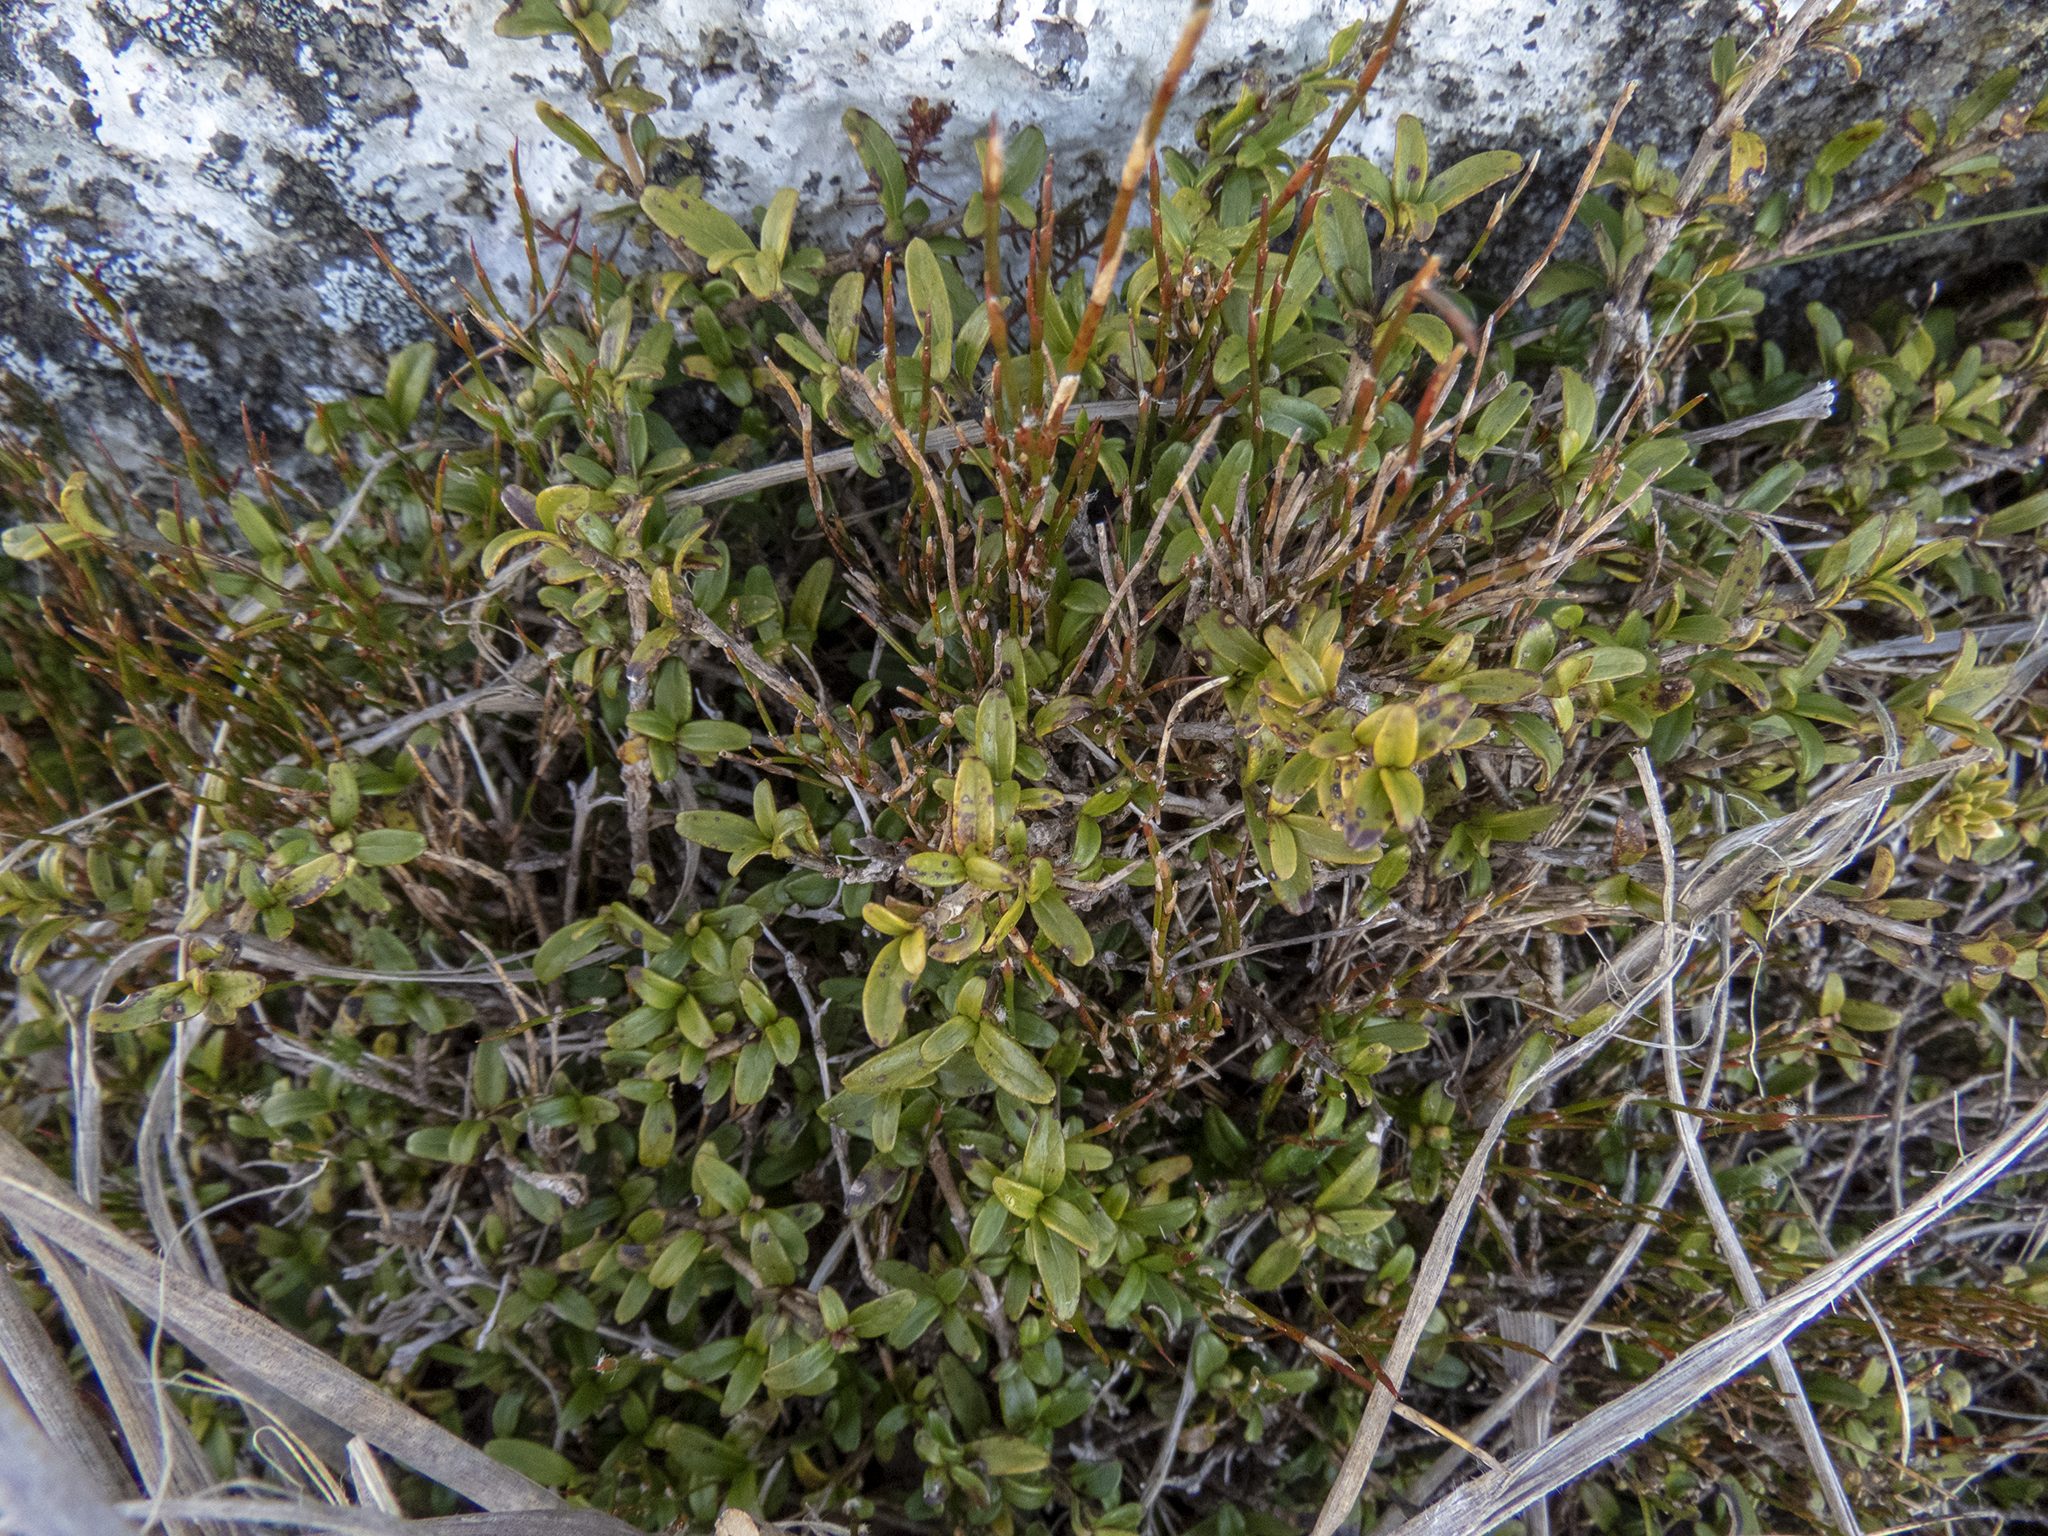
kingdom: Plantae
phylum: Tracheophyta
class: Magnoliopsida
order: Gentianales
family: Rubiaceae
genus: Coprosma
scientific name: Coprosma crenulata
